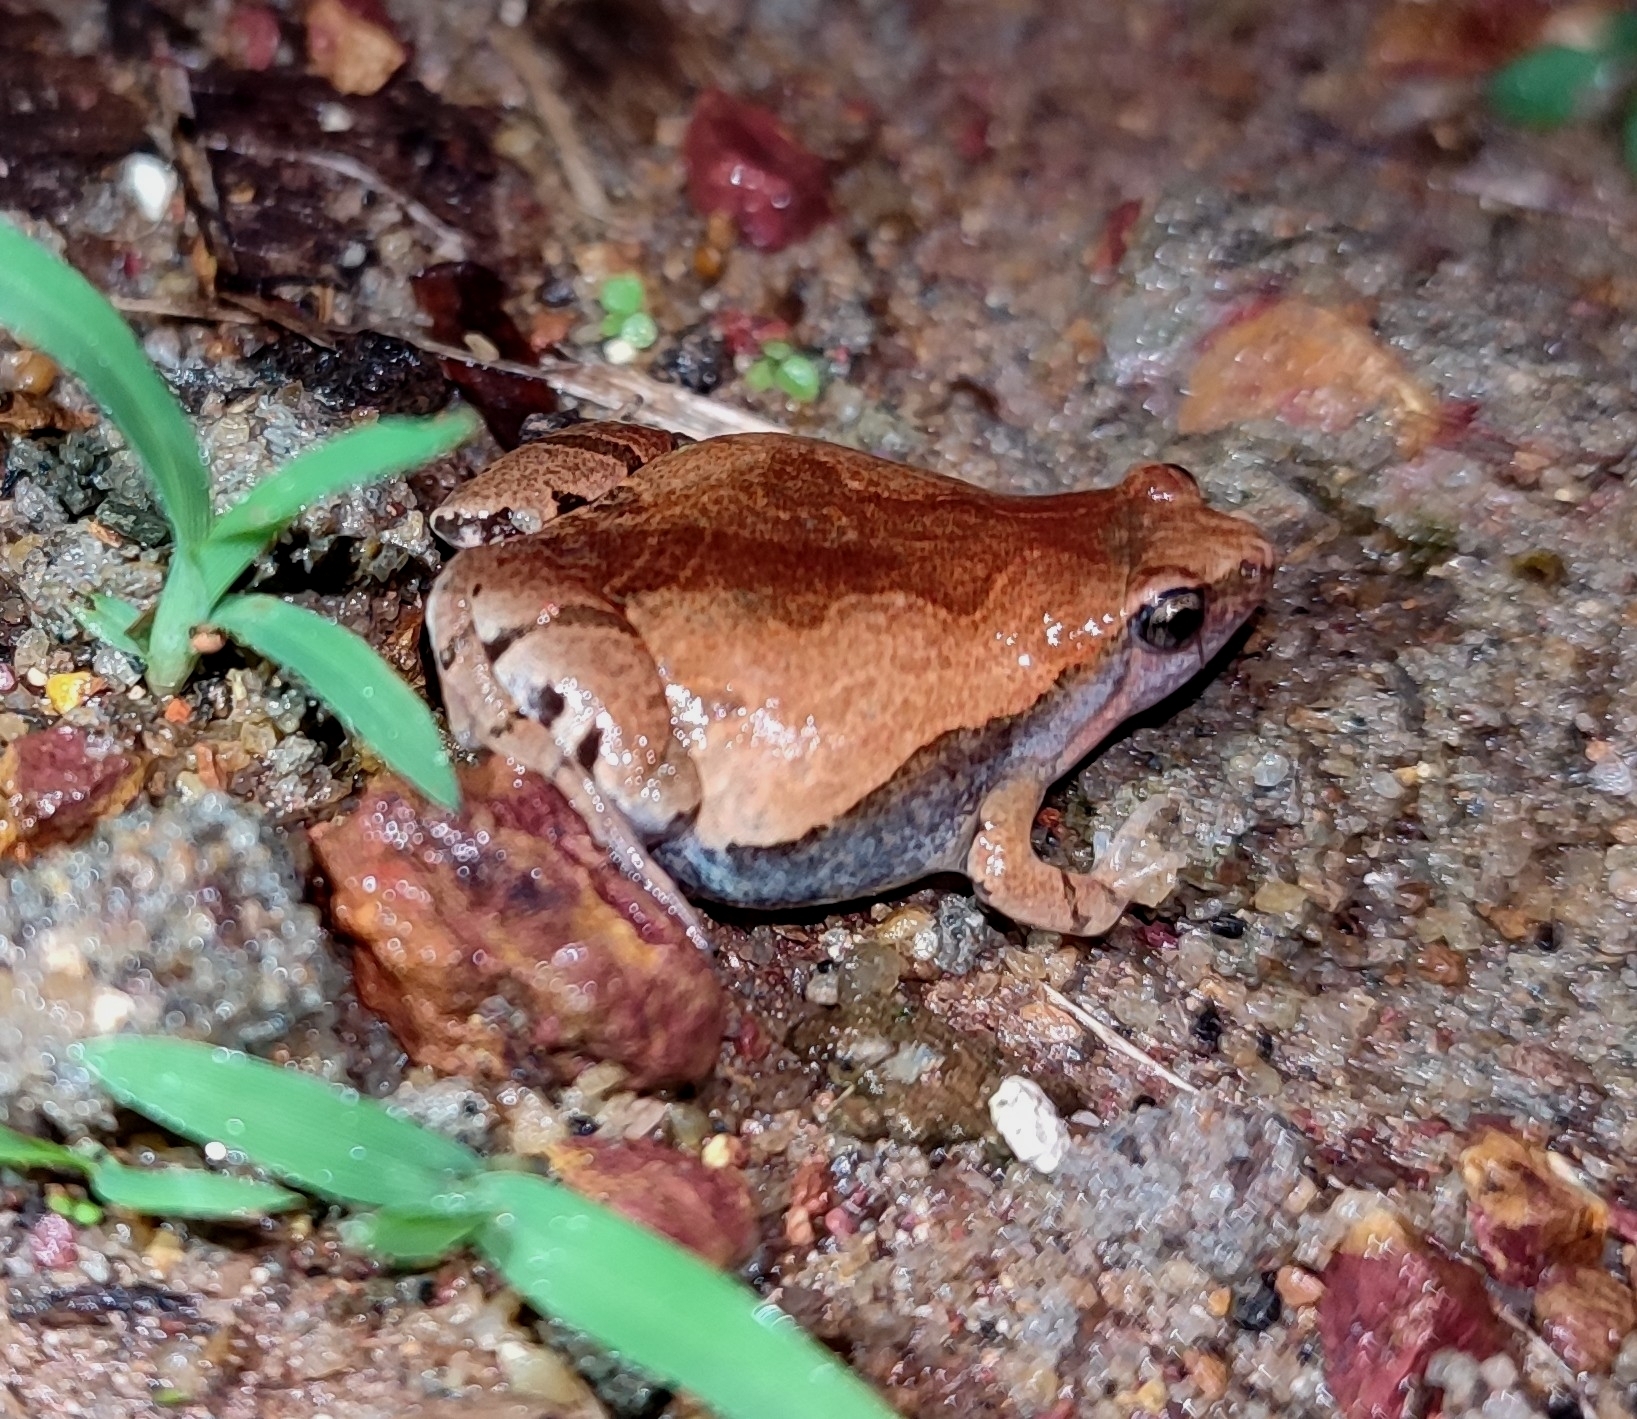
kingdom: Animalia
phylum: Chordata
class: Amphibia
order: Anura
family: Microhylidae
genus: Microhyla
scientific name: Microhyla ornata
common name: Ant frog
